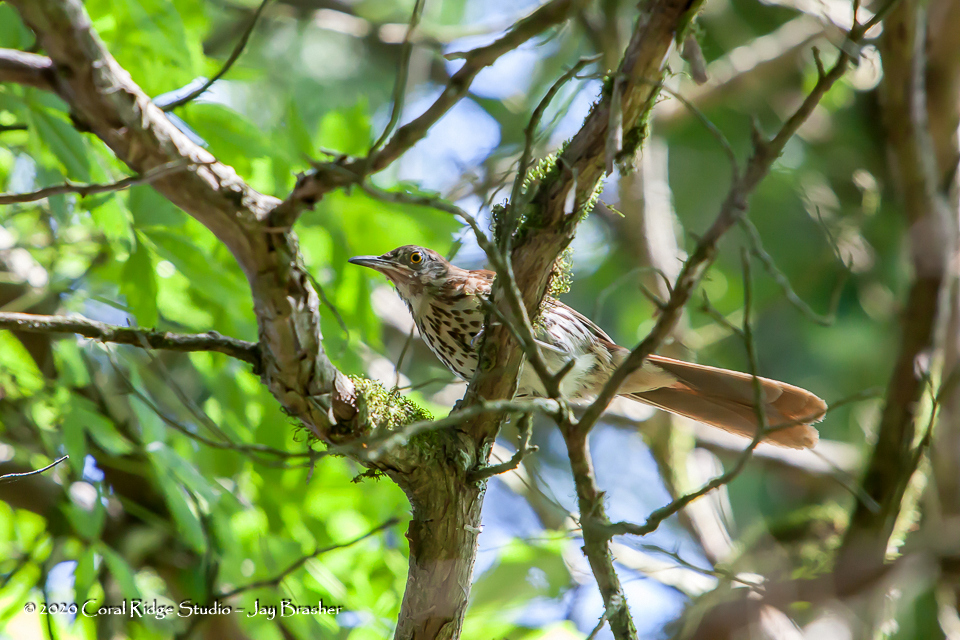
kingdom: Animalia
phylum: Chordata
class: Aves
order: Passeriformes
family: Mimidae
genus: Toxostoma
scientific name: Toxostoma rufum
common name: Brown thrasher
